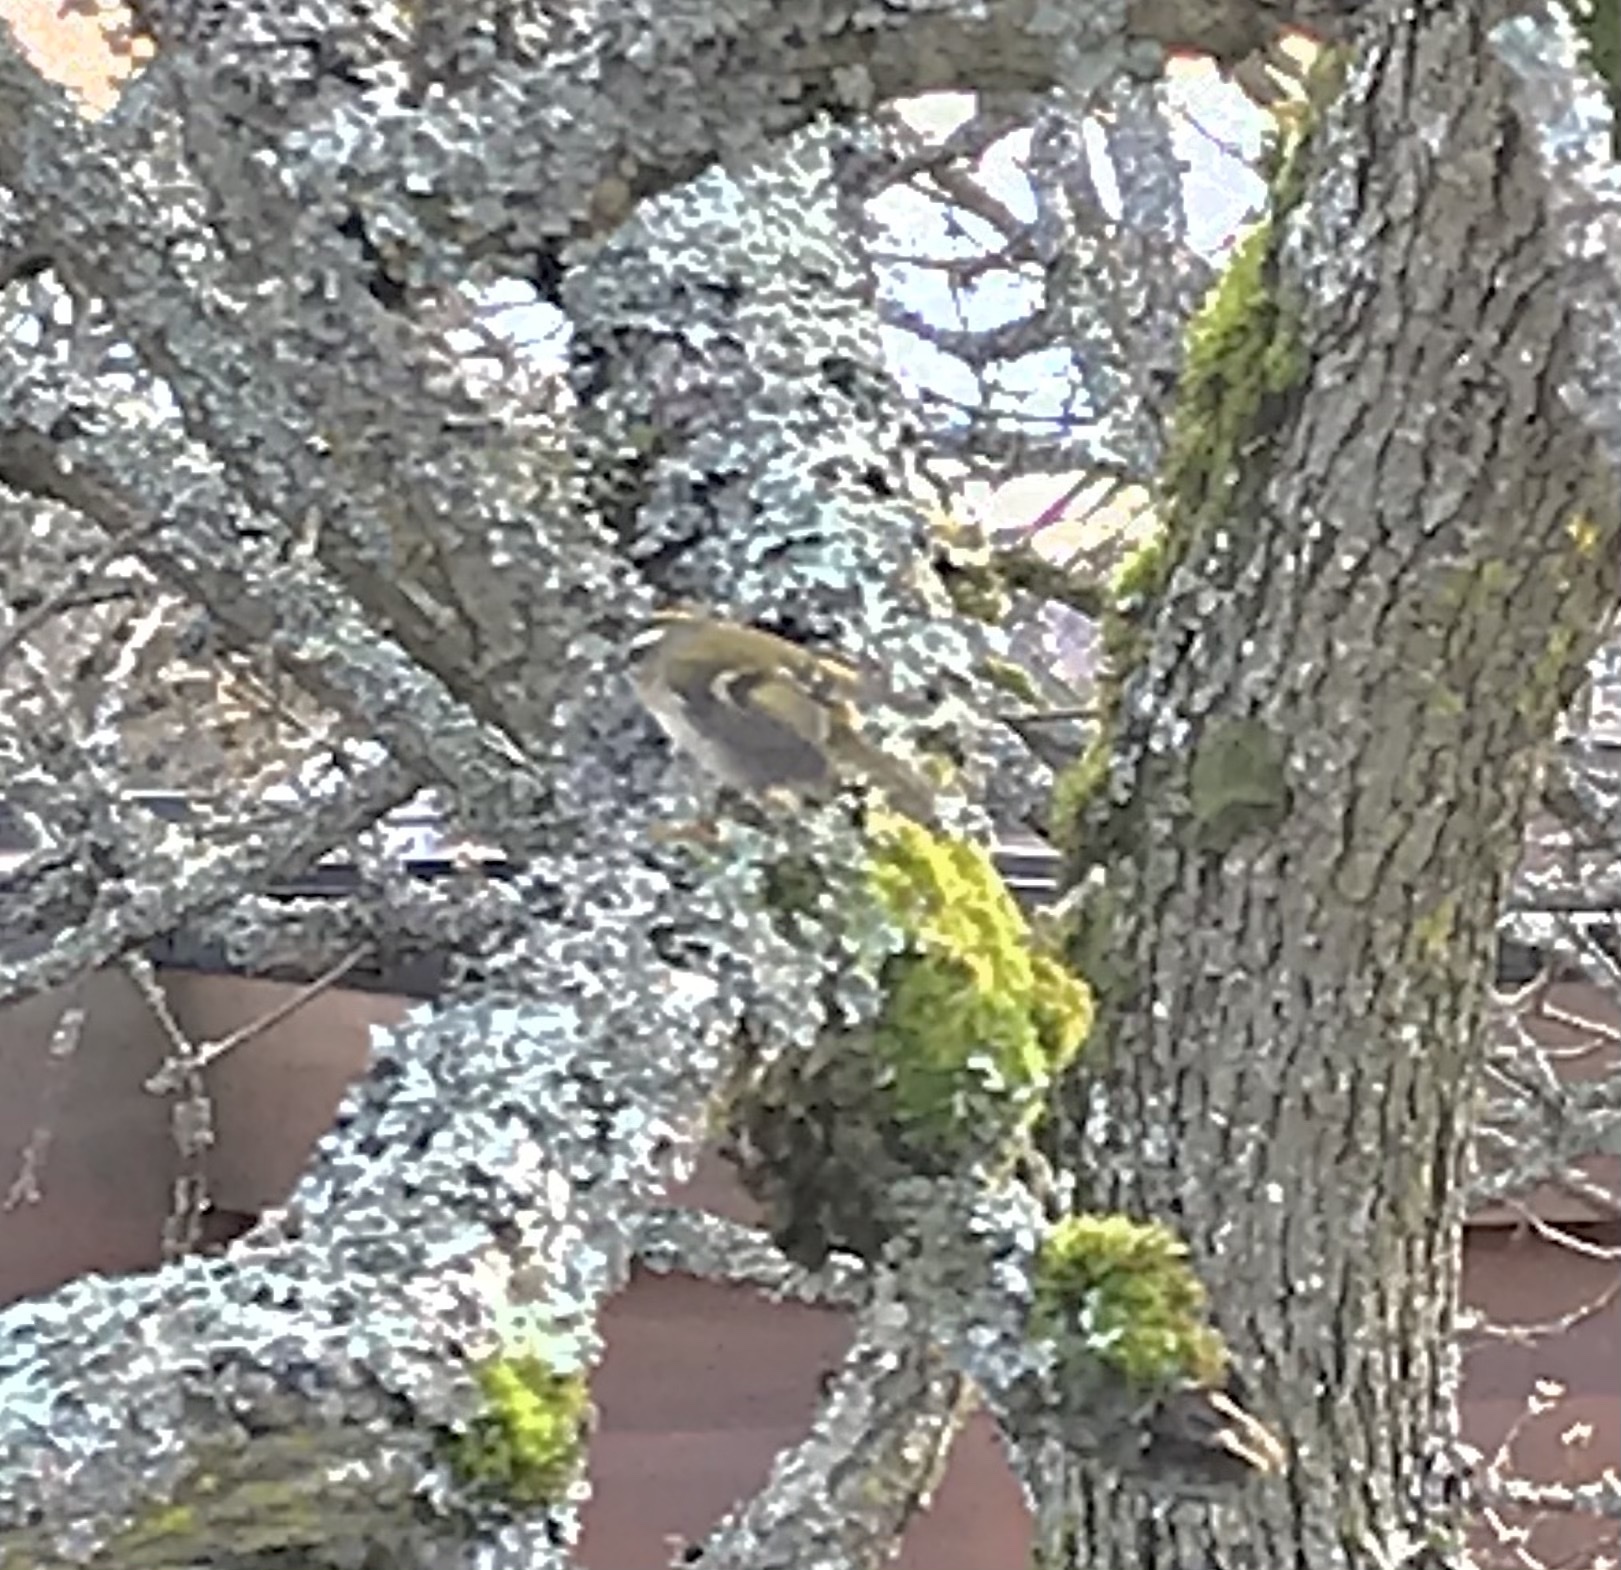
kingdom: Animalia
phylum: Chordata
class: Aves
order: Passeriformes
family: Regulidae
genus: Regulus
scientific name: Regulus satrapa
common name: Golden-crowned kinglet
